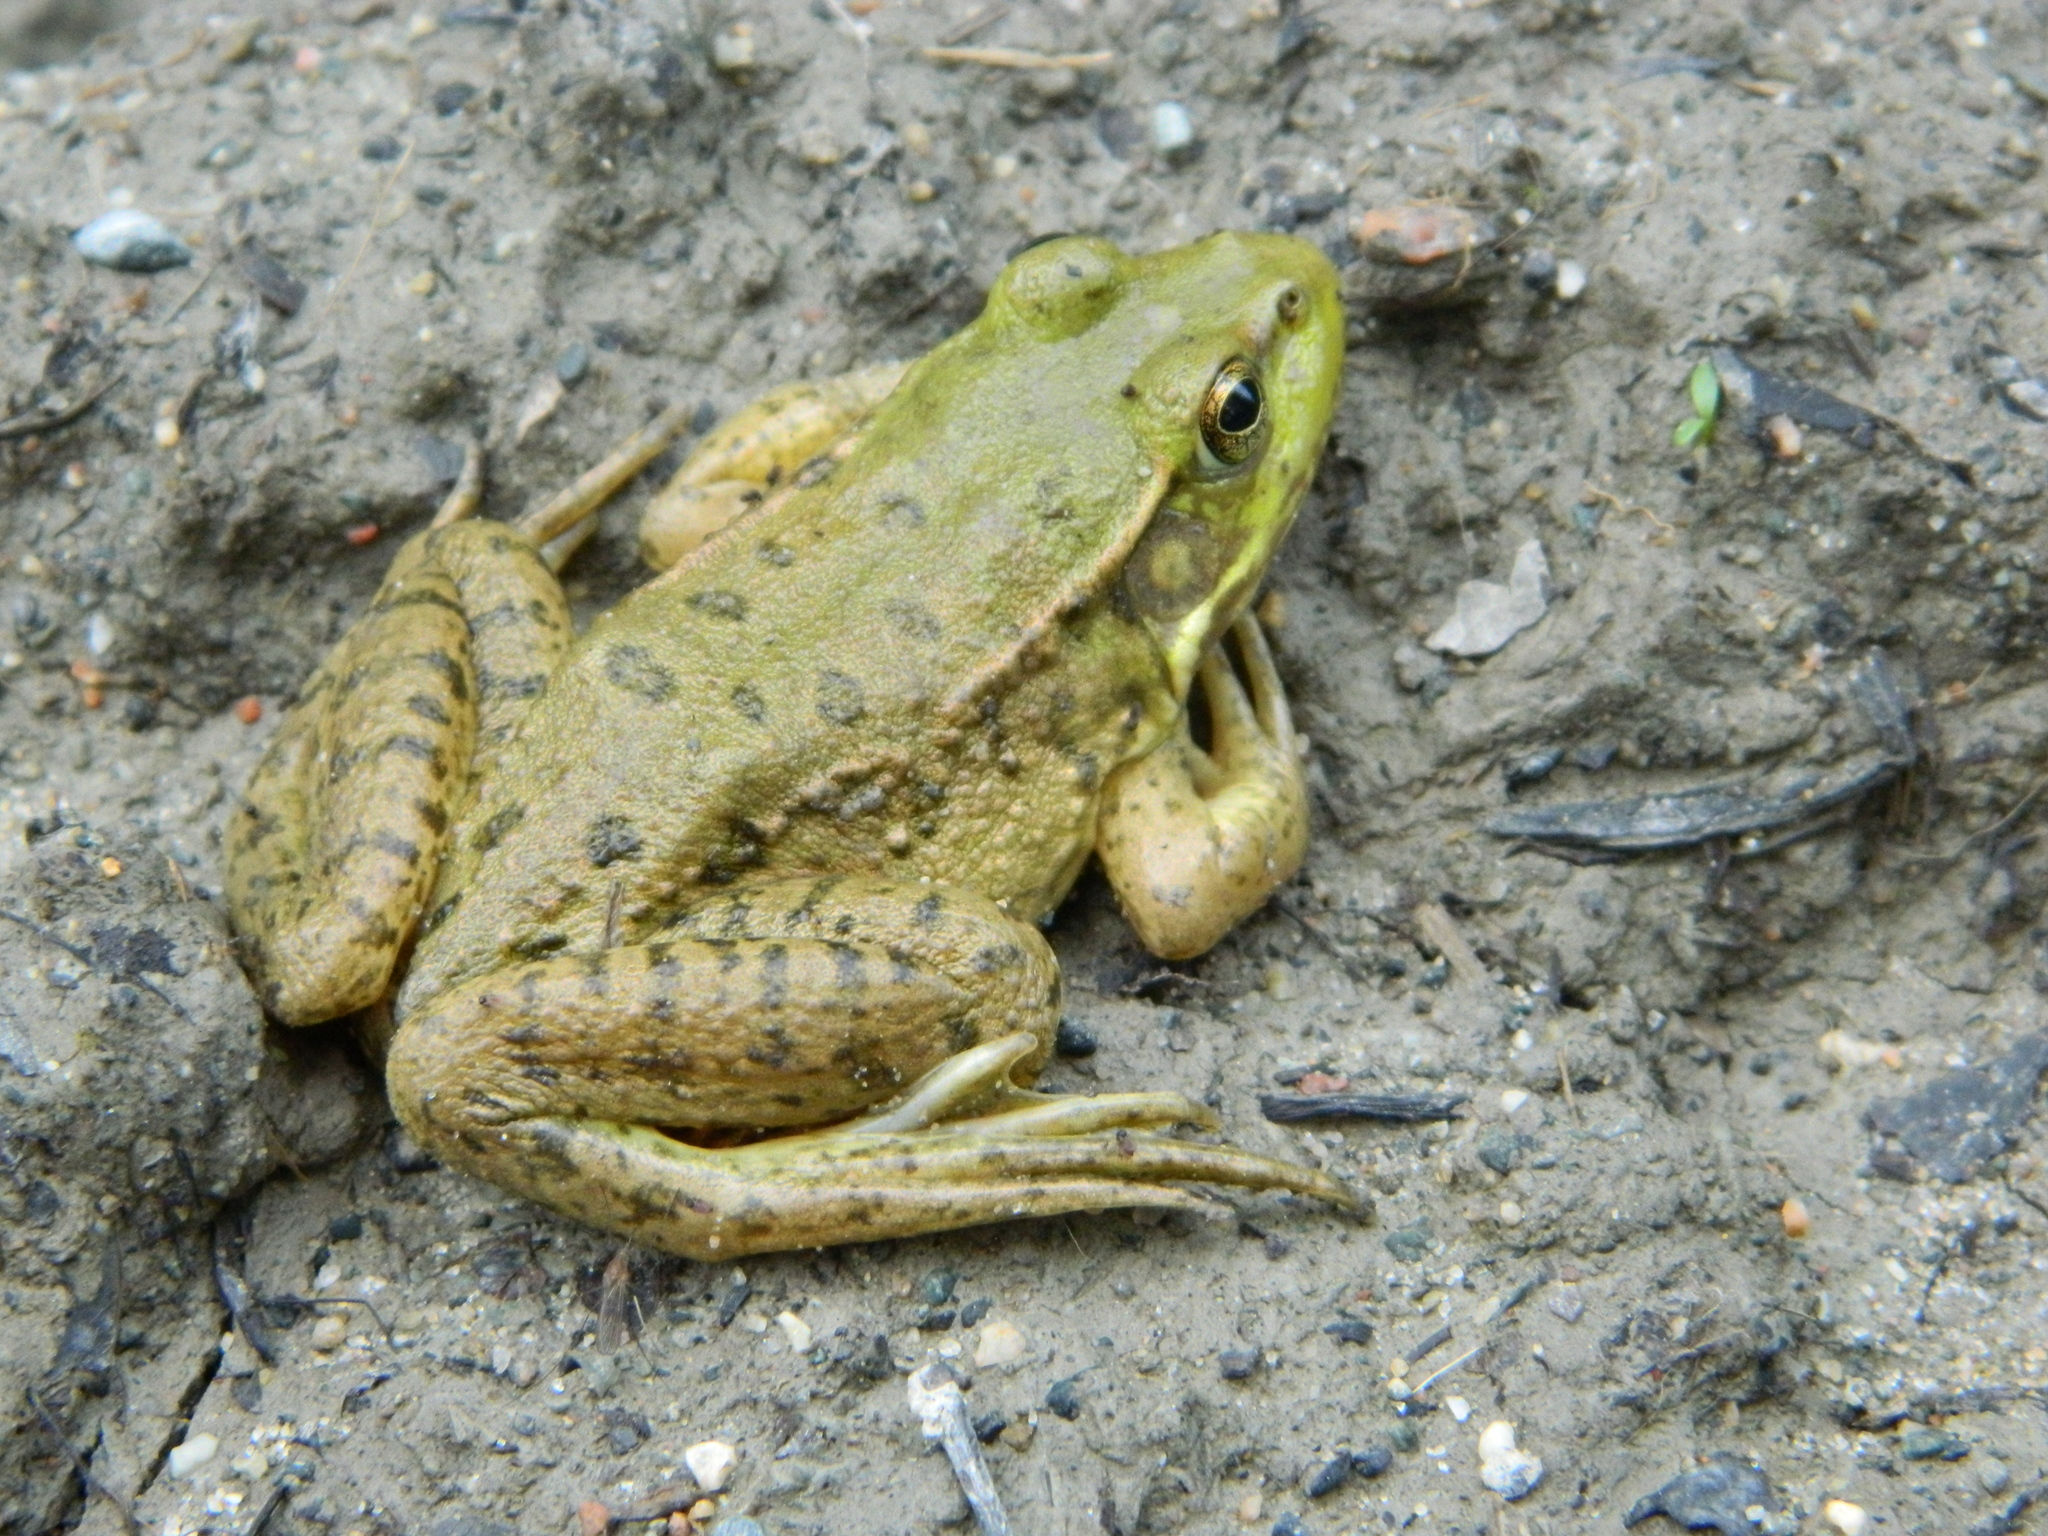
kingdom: Animalia
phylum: Chordata
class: Amphibia
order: Anura
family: Ranidae
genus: Lithobates
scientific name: Lithobates clamitans
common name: Green frog
